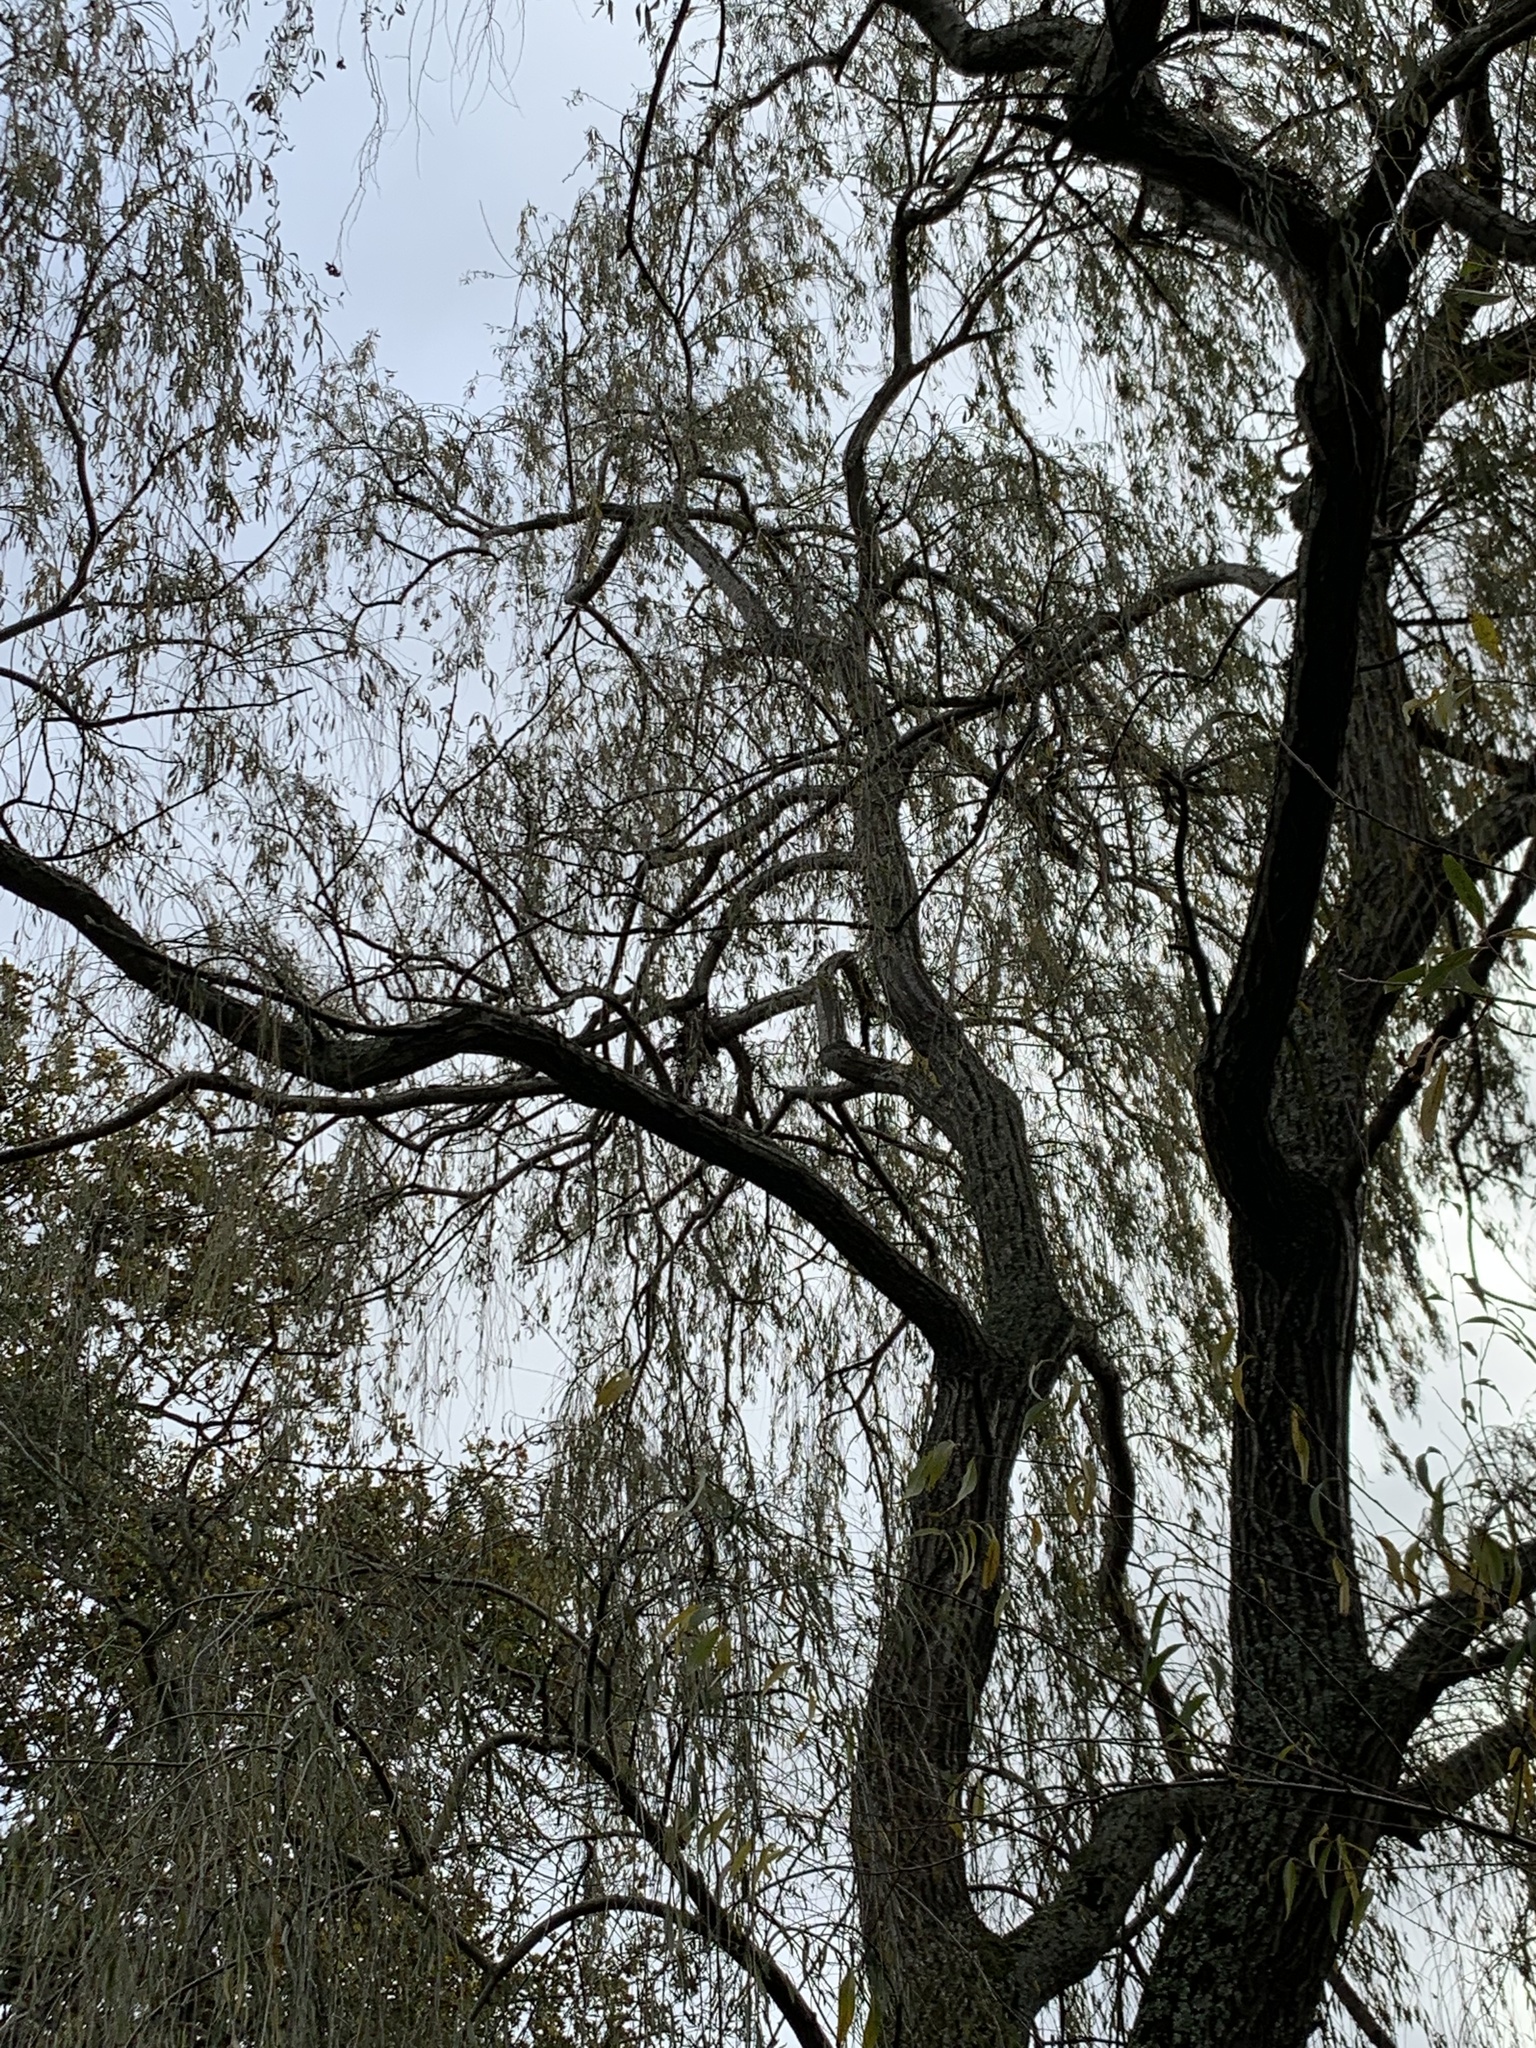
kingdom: Plantae
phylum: Tracheophyta
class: Magnoliopsida
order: Malpighiales
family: Salicaceae
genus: Salix
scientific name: Salix babylonica
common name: Weeping willow
